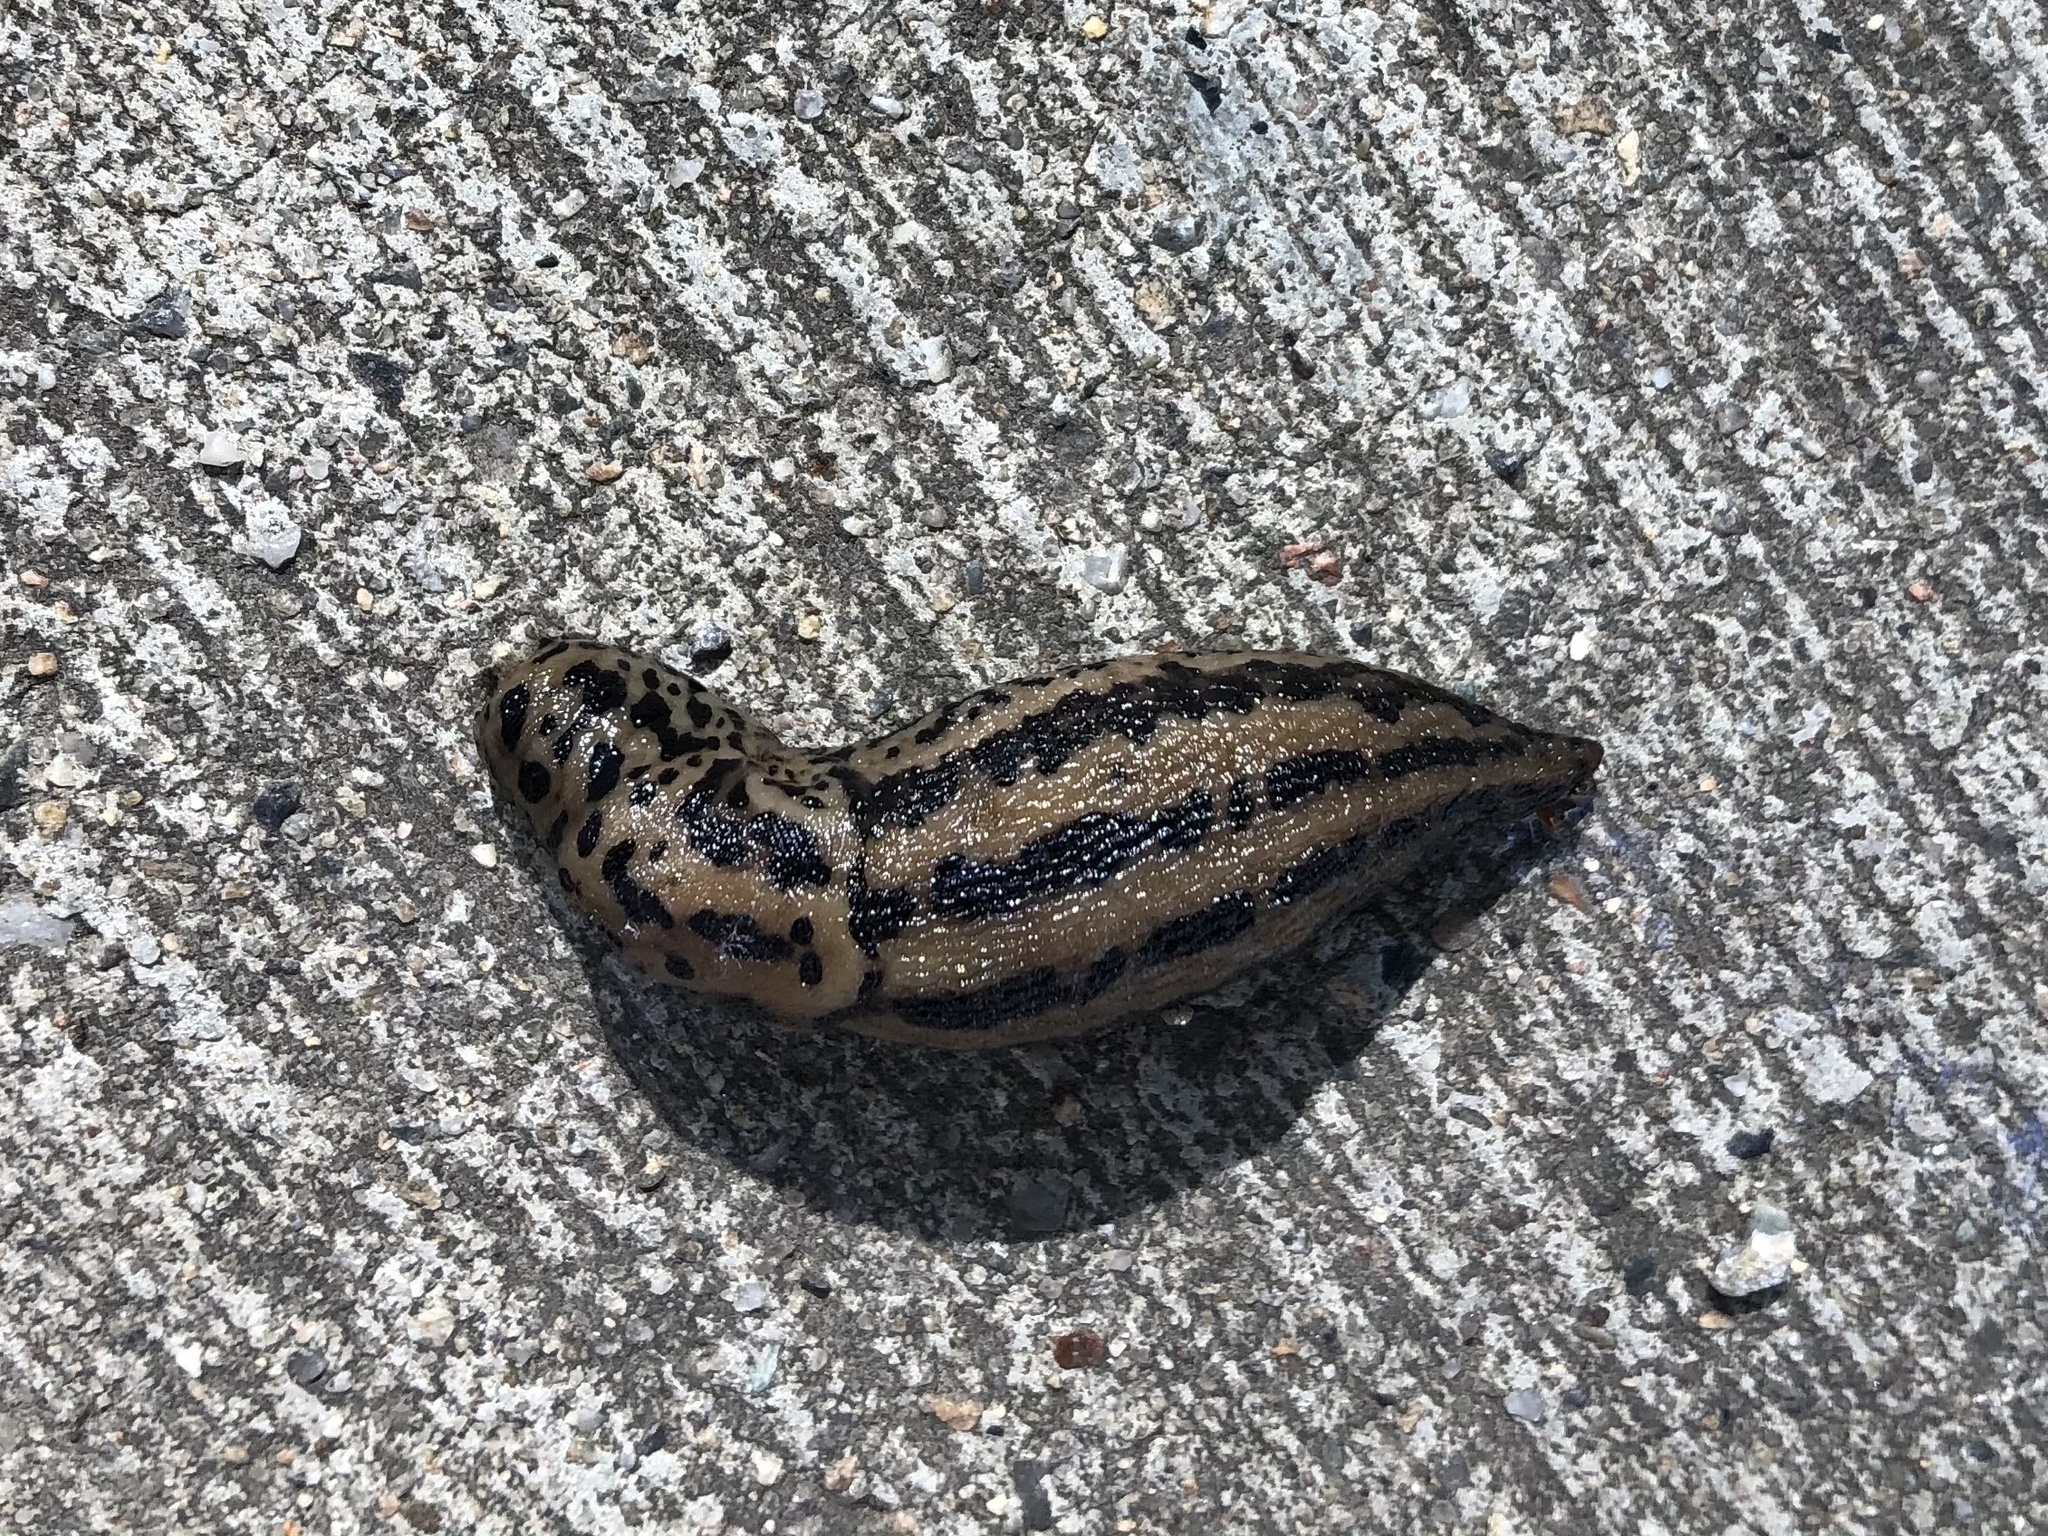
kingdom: Animalia
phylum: Mollusca
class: Gastropoda
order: Stylommatophora
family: Limacidae
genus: Limax
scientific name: Limax maximus
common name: Great grey slug
